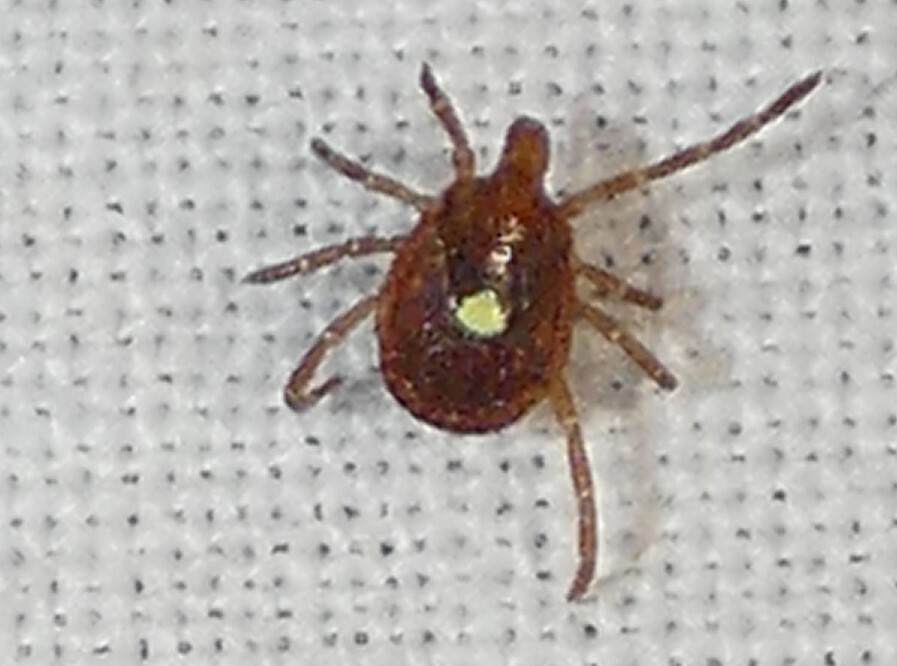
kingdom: Animalia
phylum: Arthropoda
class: Arachnida
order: Ixodida
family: Ixodidae
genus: Amblyomma
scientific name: Amblyomma americanum
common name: Lone star tick
